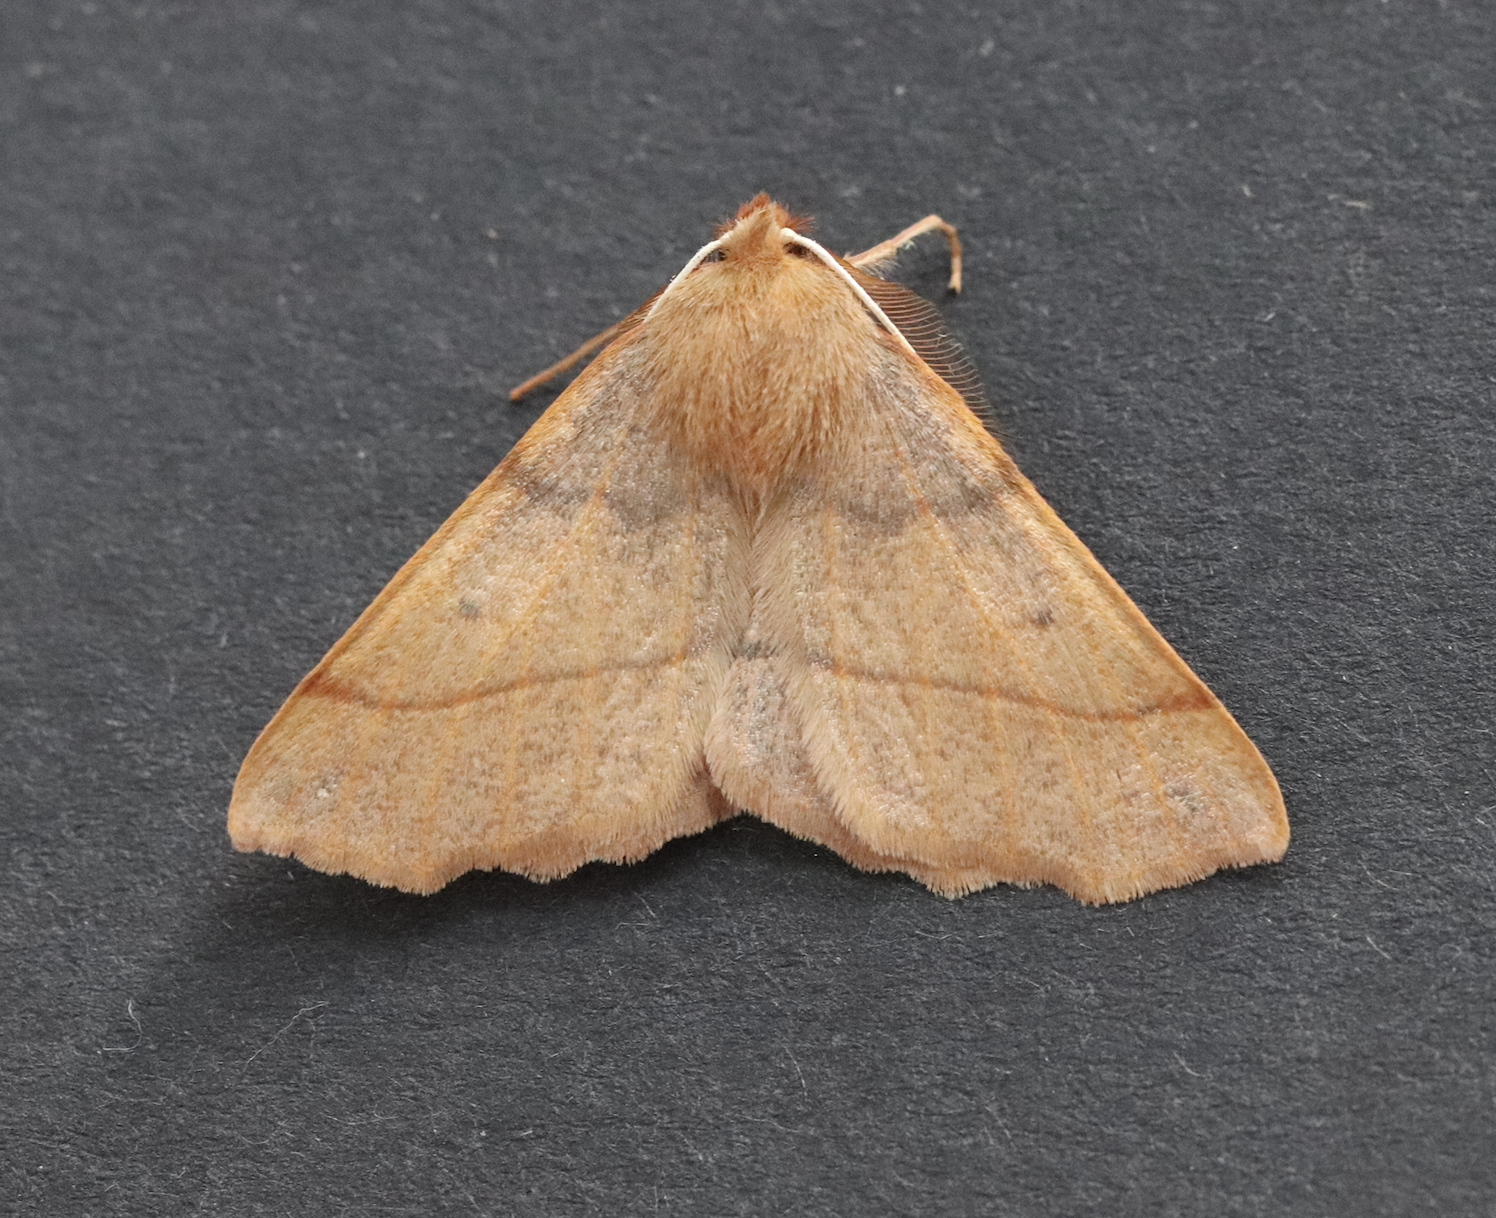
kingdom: Animalia
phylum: Arthropoda
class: Insecta
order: Lepidoptera
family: Geometridae
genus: Colotois
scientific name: Colotois pennaria
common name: Feathered thorn
